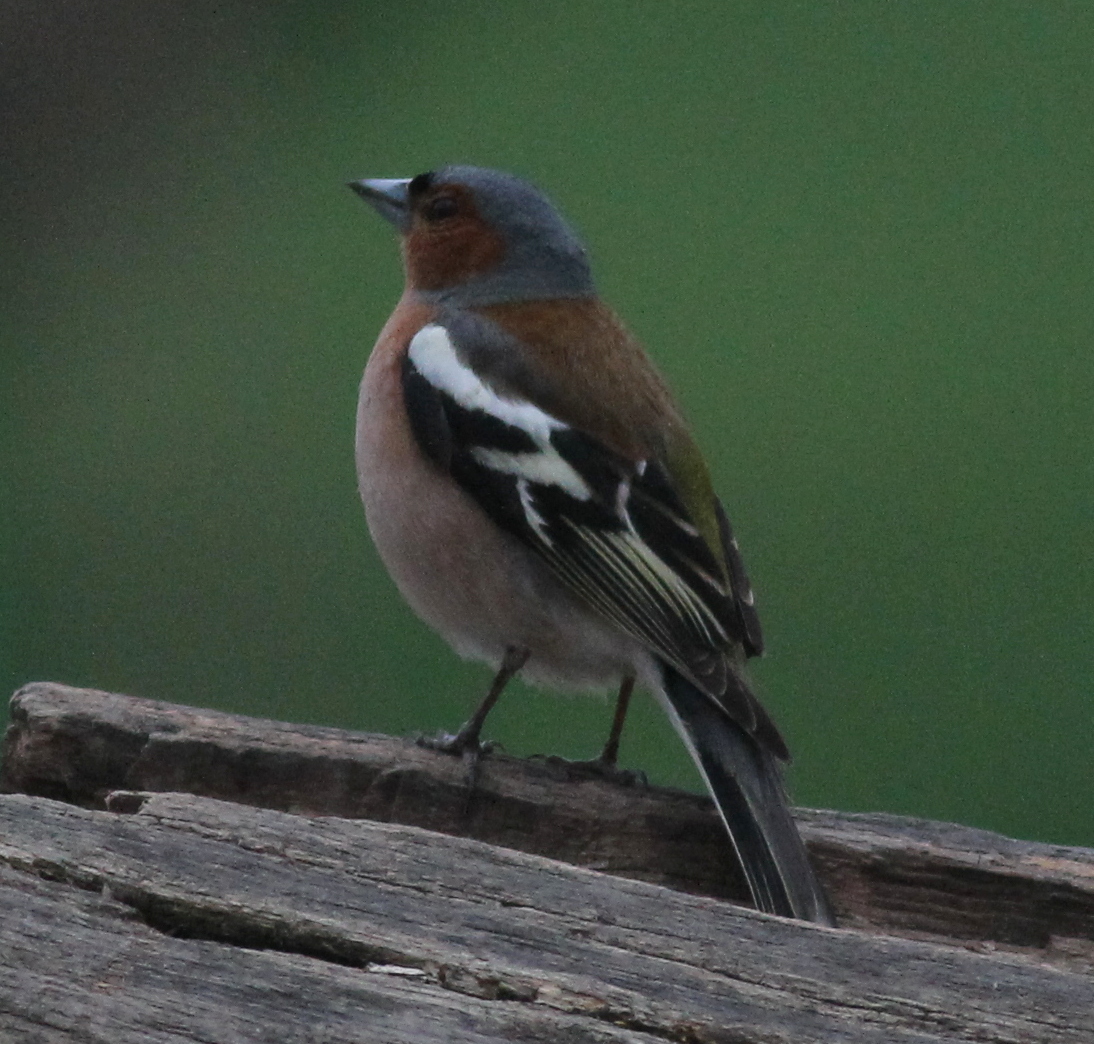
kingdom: Animalia
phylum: Chordata
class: Aves
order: Passeriformes
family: Fringillidae
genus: Fringilla
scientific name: Fringilla coelebs
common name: Common chaffinch
